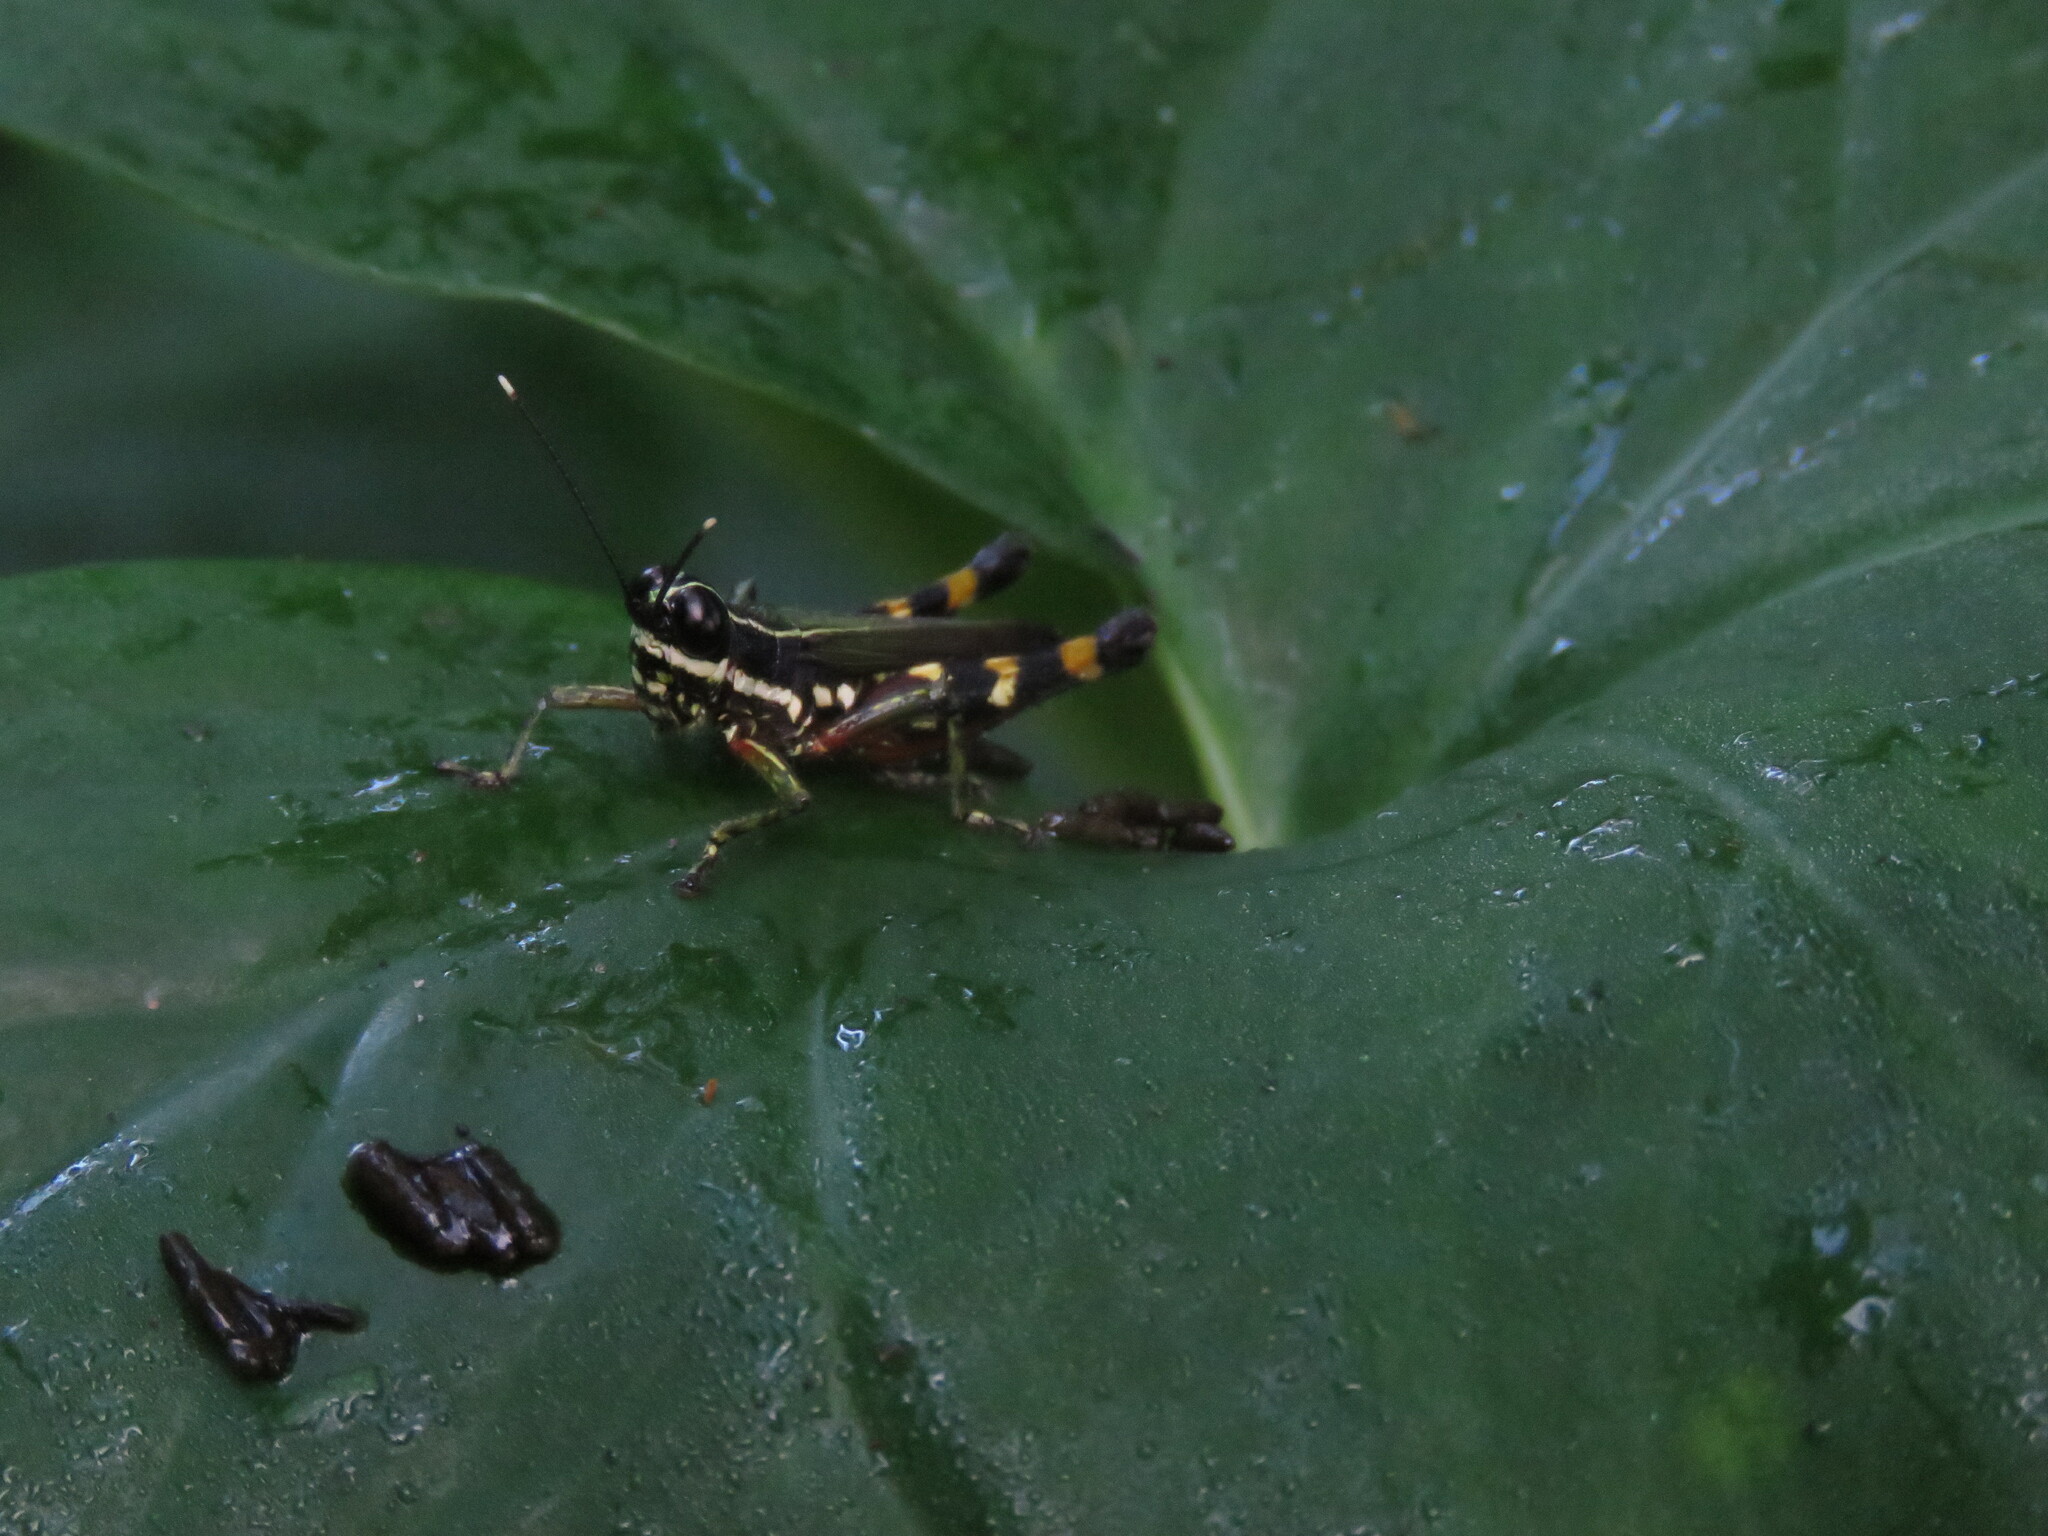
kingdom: Animalia
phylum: Arthropoda
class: Insecta
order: Orthoptera
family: Acrididae
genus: Tetrataenia
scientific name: Tetrataenia surinama
